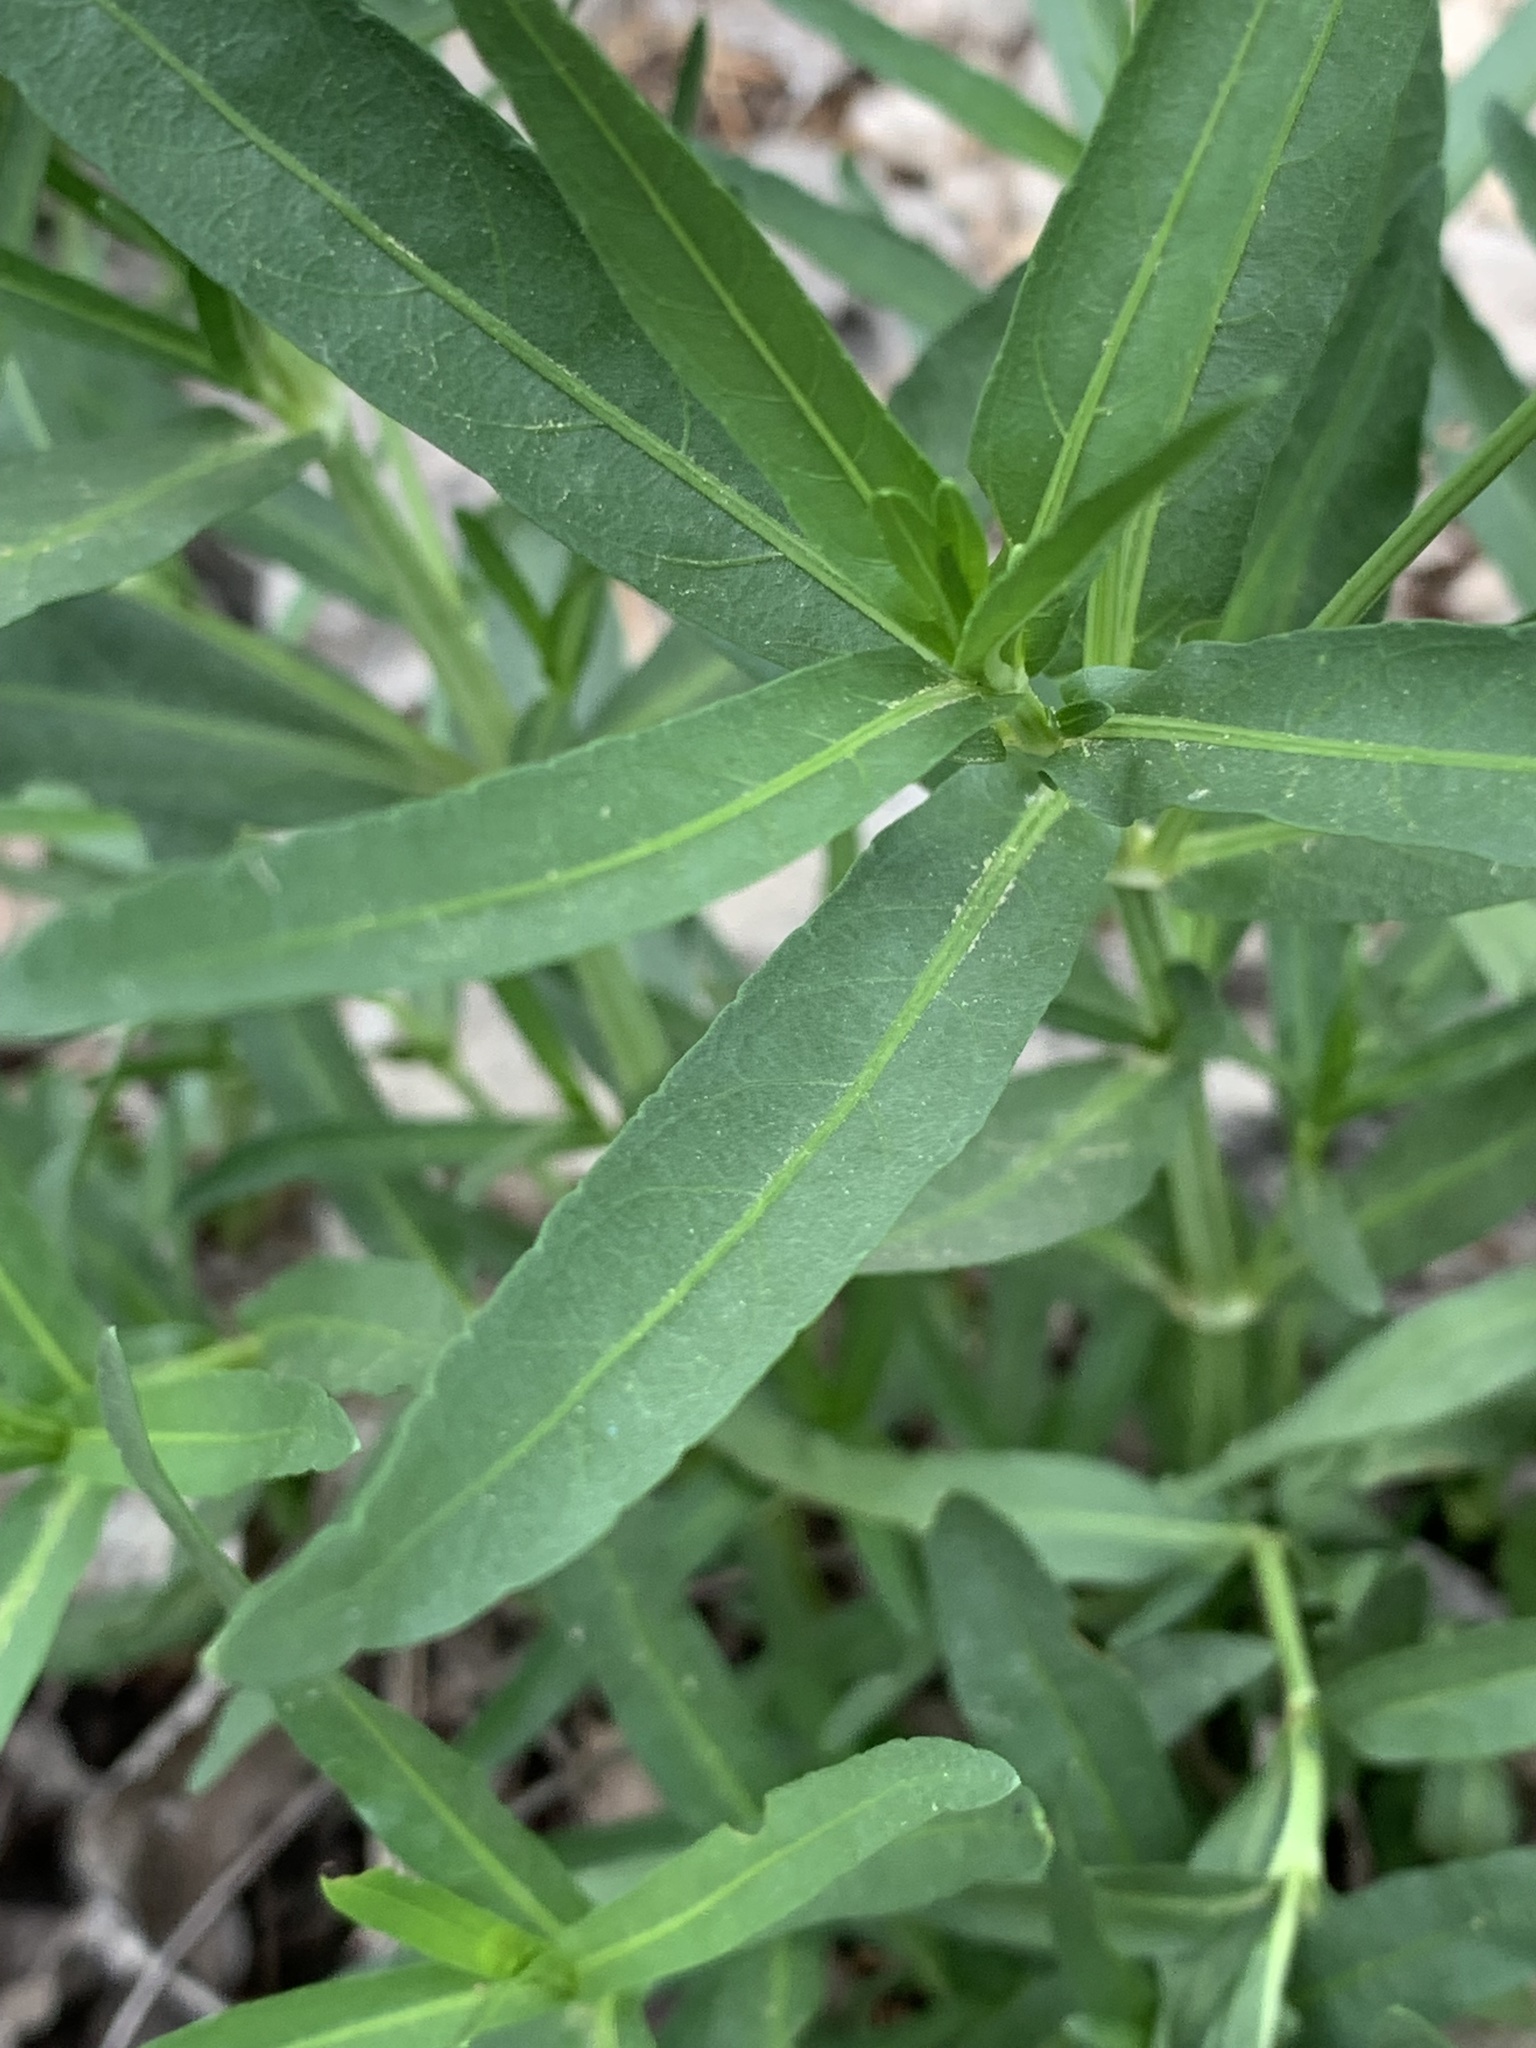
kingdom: Plantae
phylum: Tracheophyta
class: Magnoliopsida
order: Lamiales
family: Acanthaceae
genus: Dianthera
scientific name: Dianthera americana
